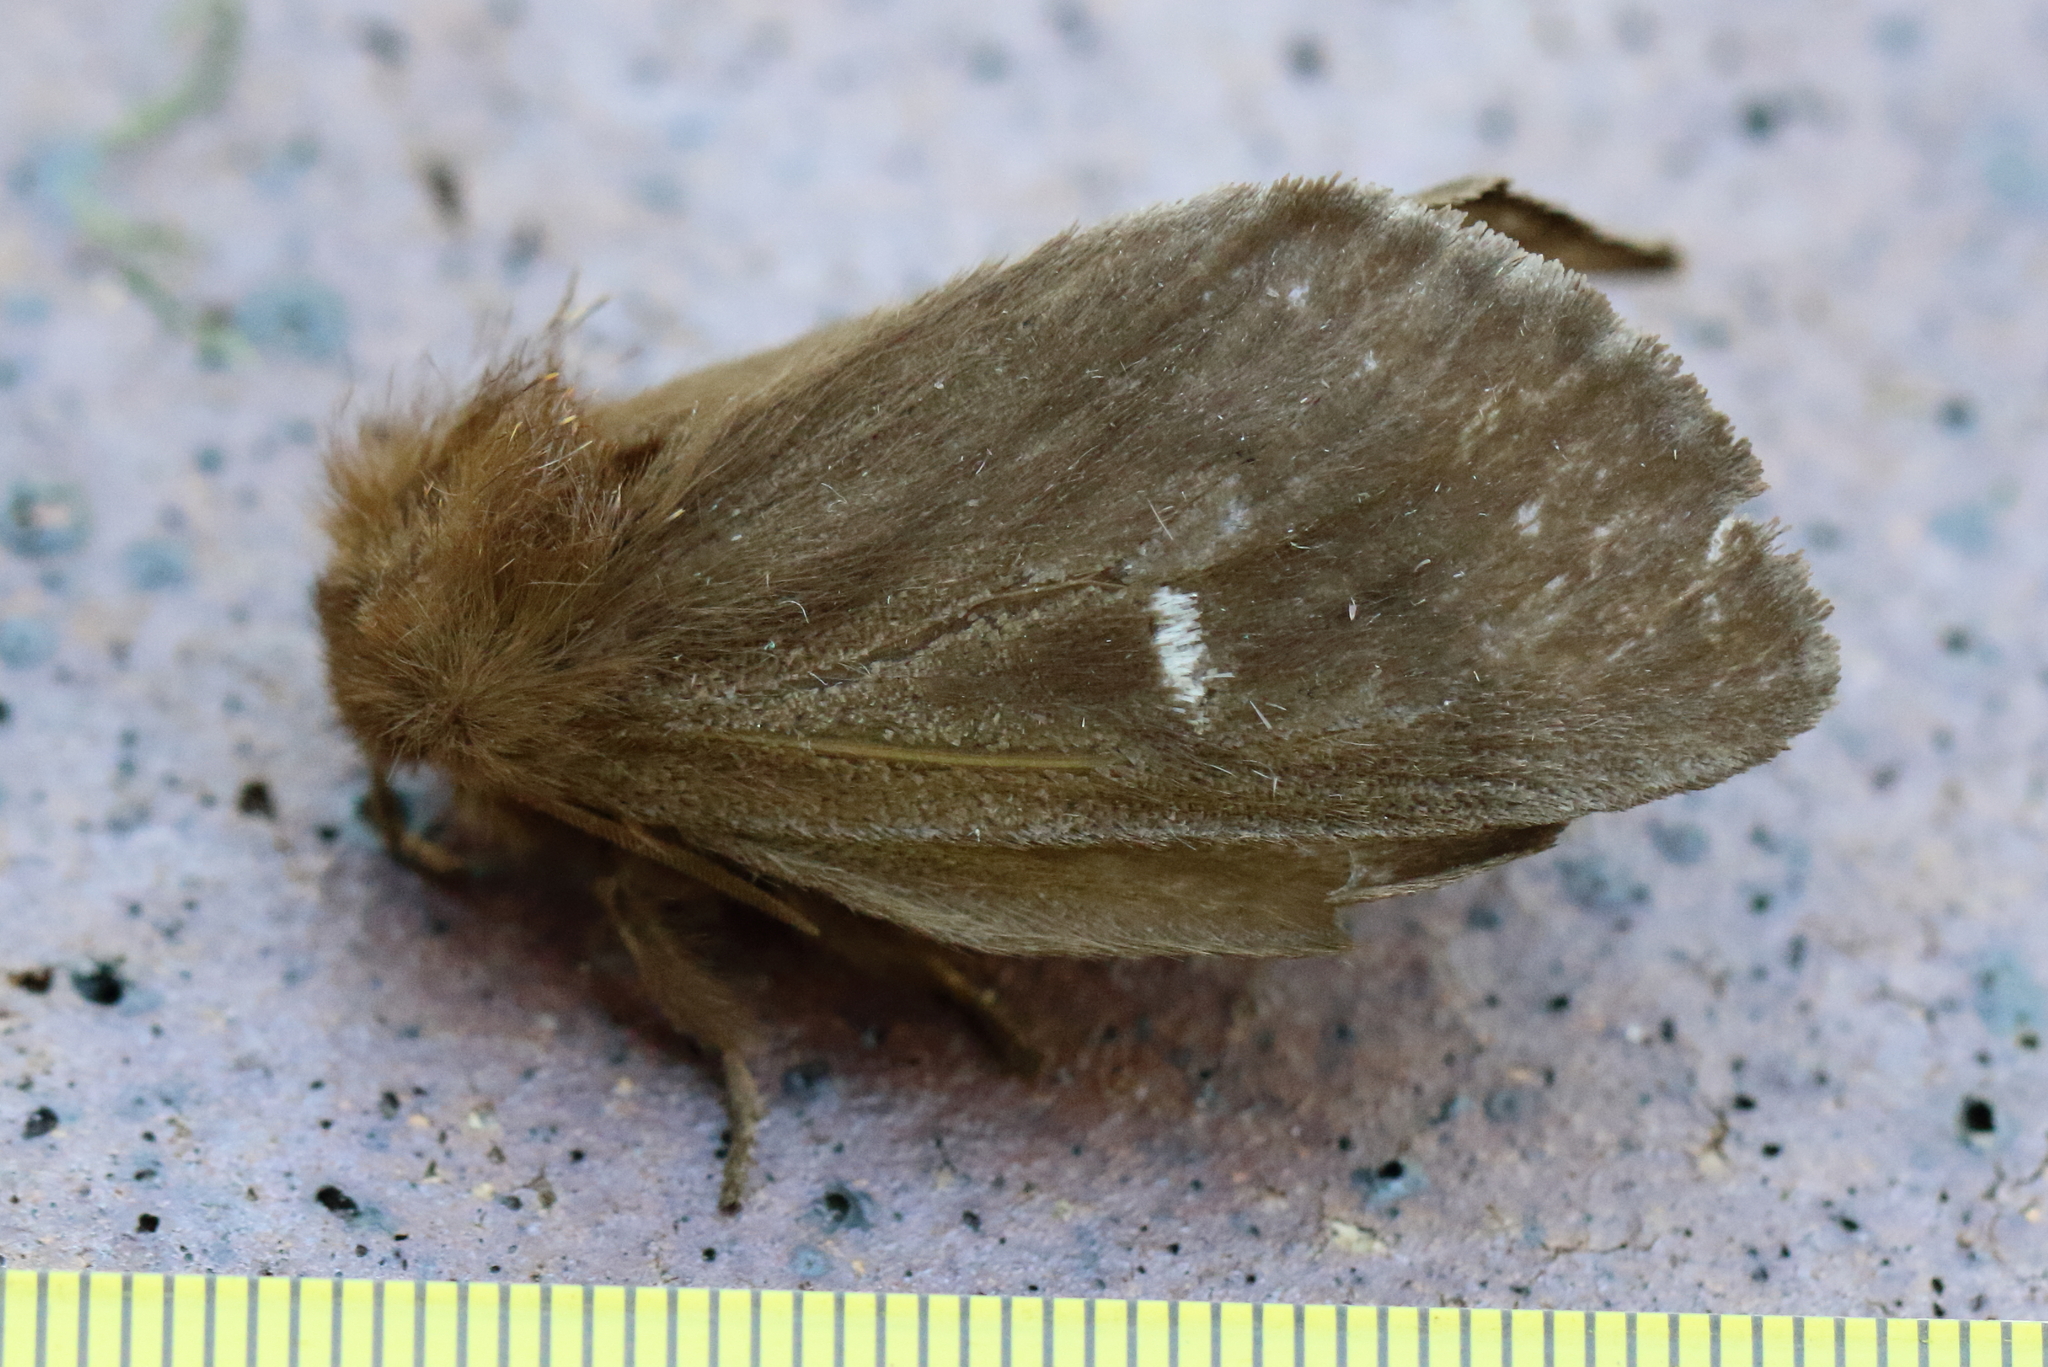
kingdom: Animalia
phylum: Arthropoda
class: Insecta
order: Lepidoptera
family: Notodontidae
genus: Ochrogaster
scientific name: Ochrogaster lunifer
